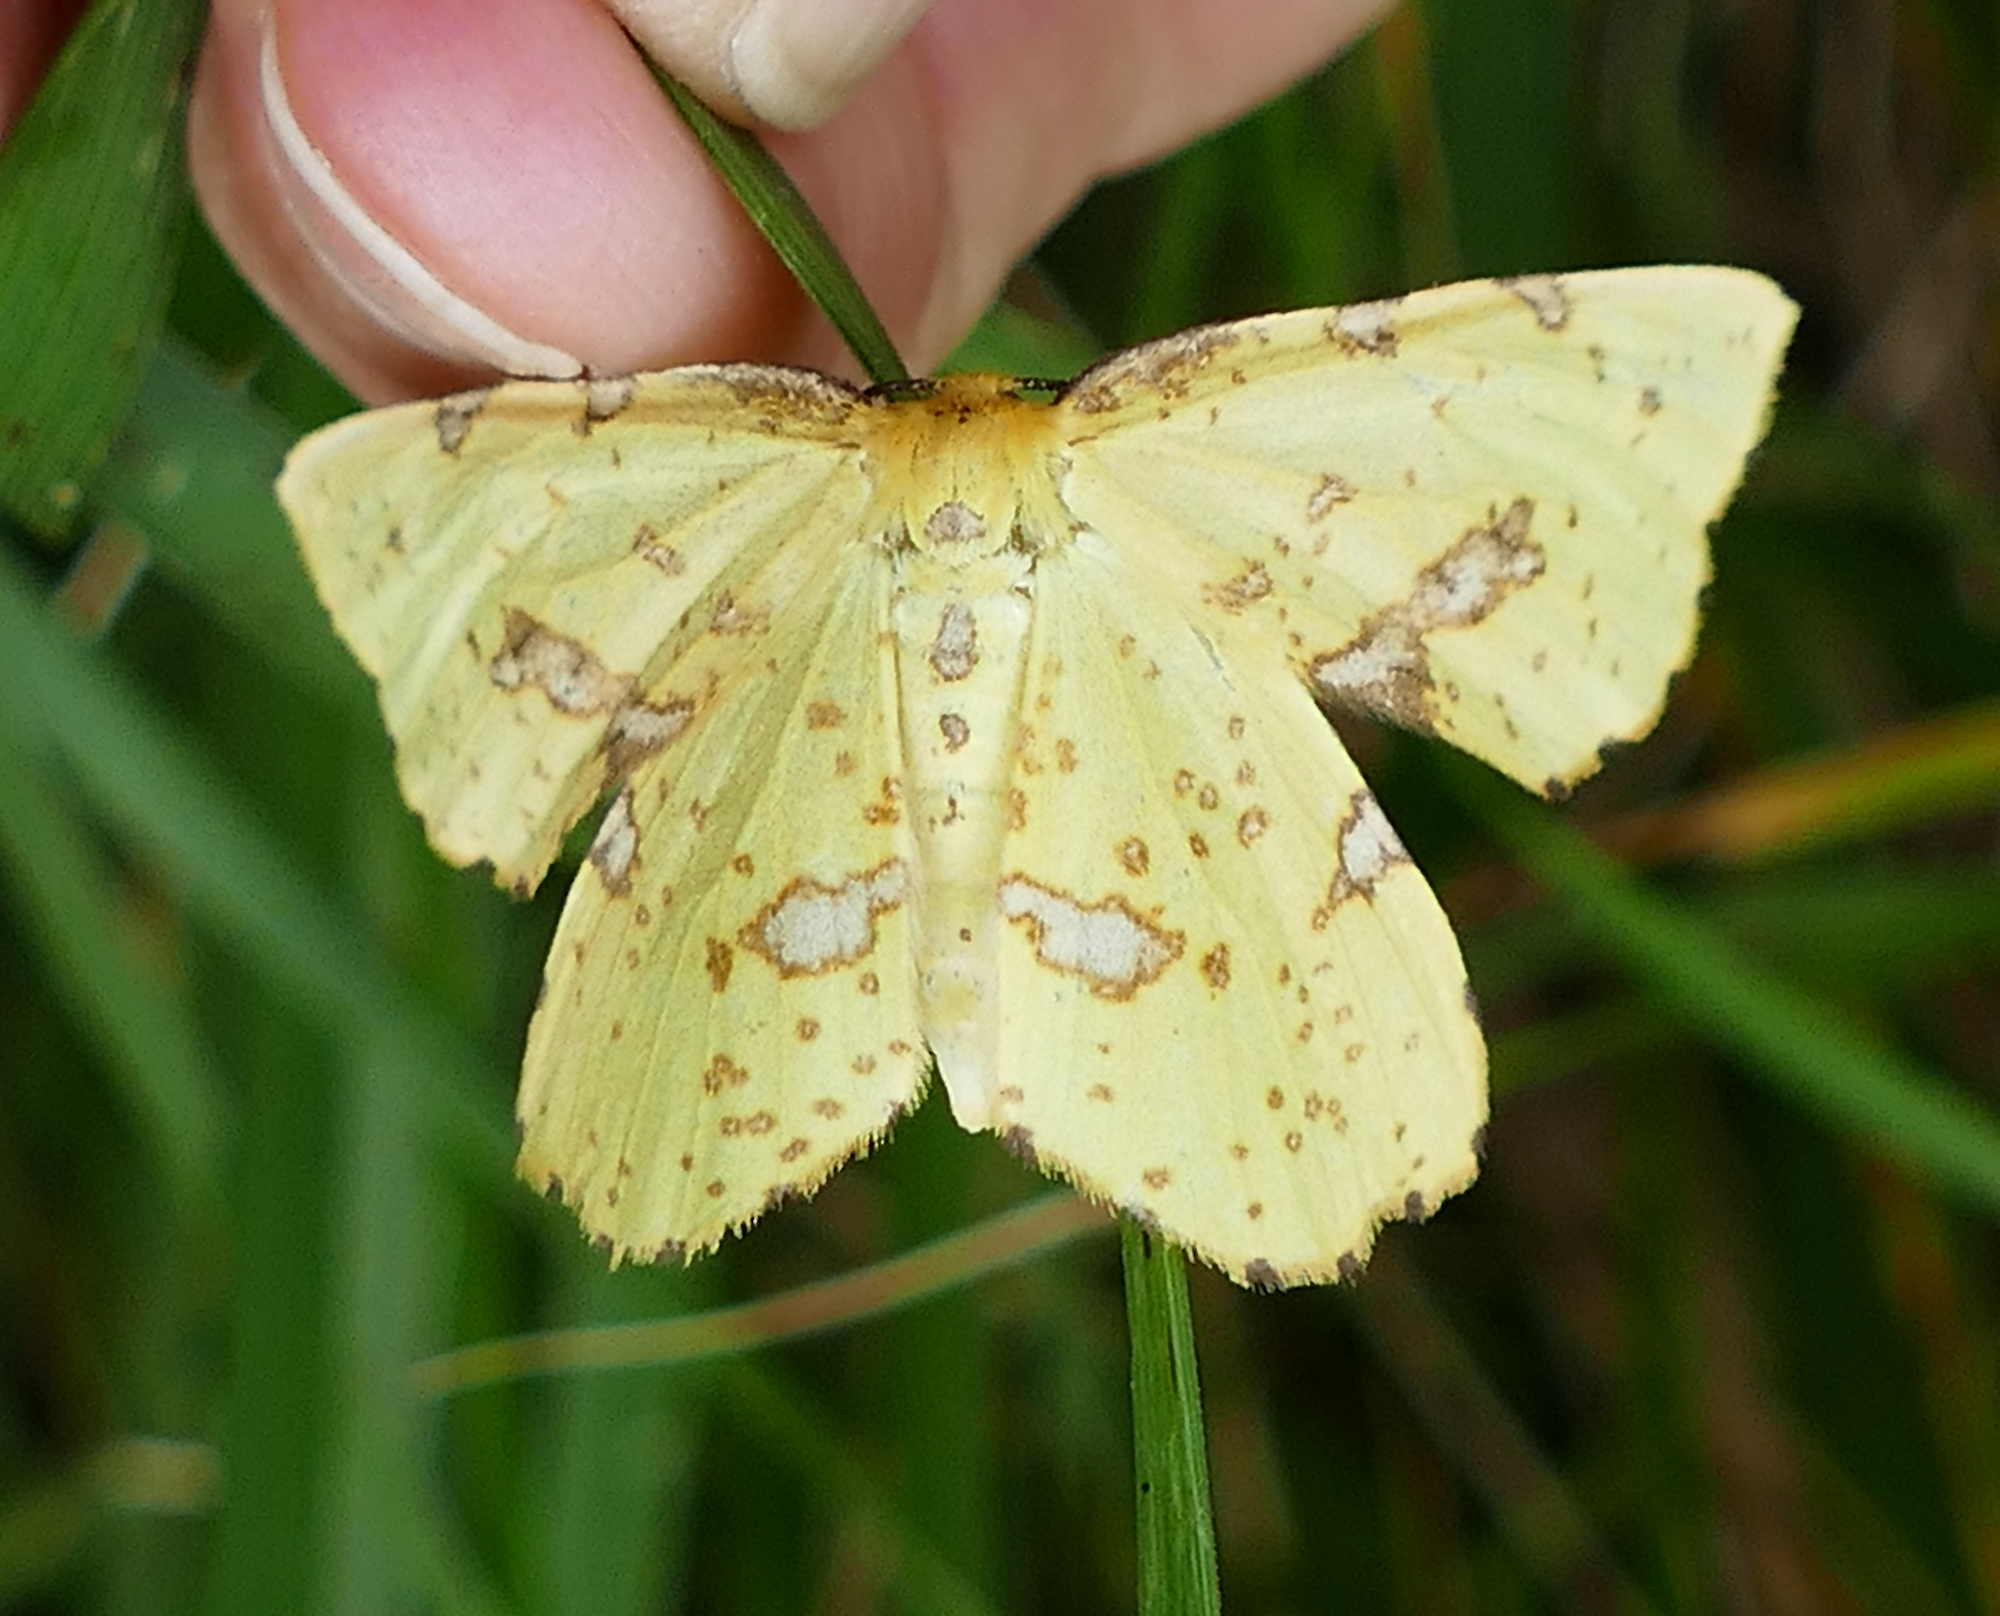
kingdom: Animalia
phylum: Arthropoda
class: Insecta
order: Lepidoptera
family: Geometridae
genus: Xanthotype
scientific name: Xanthotype
